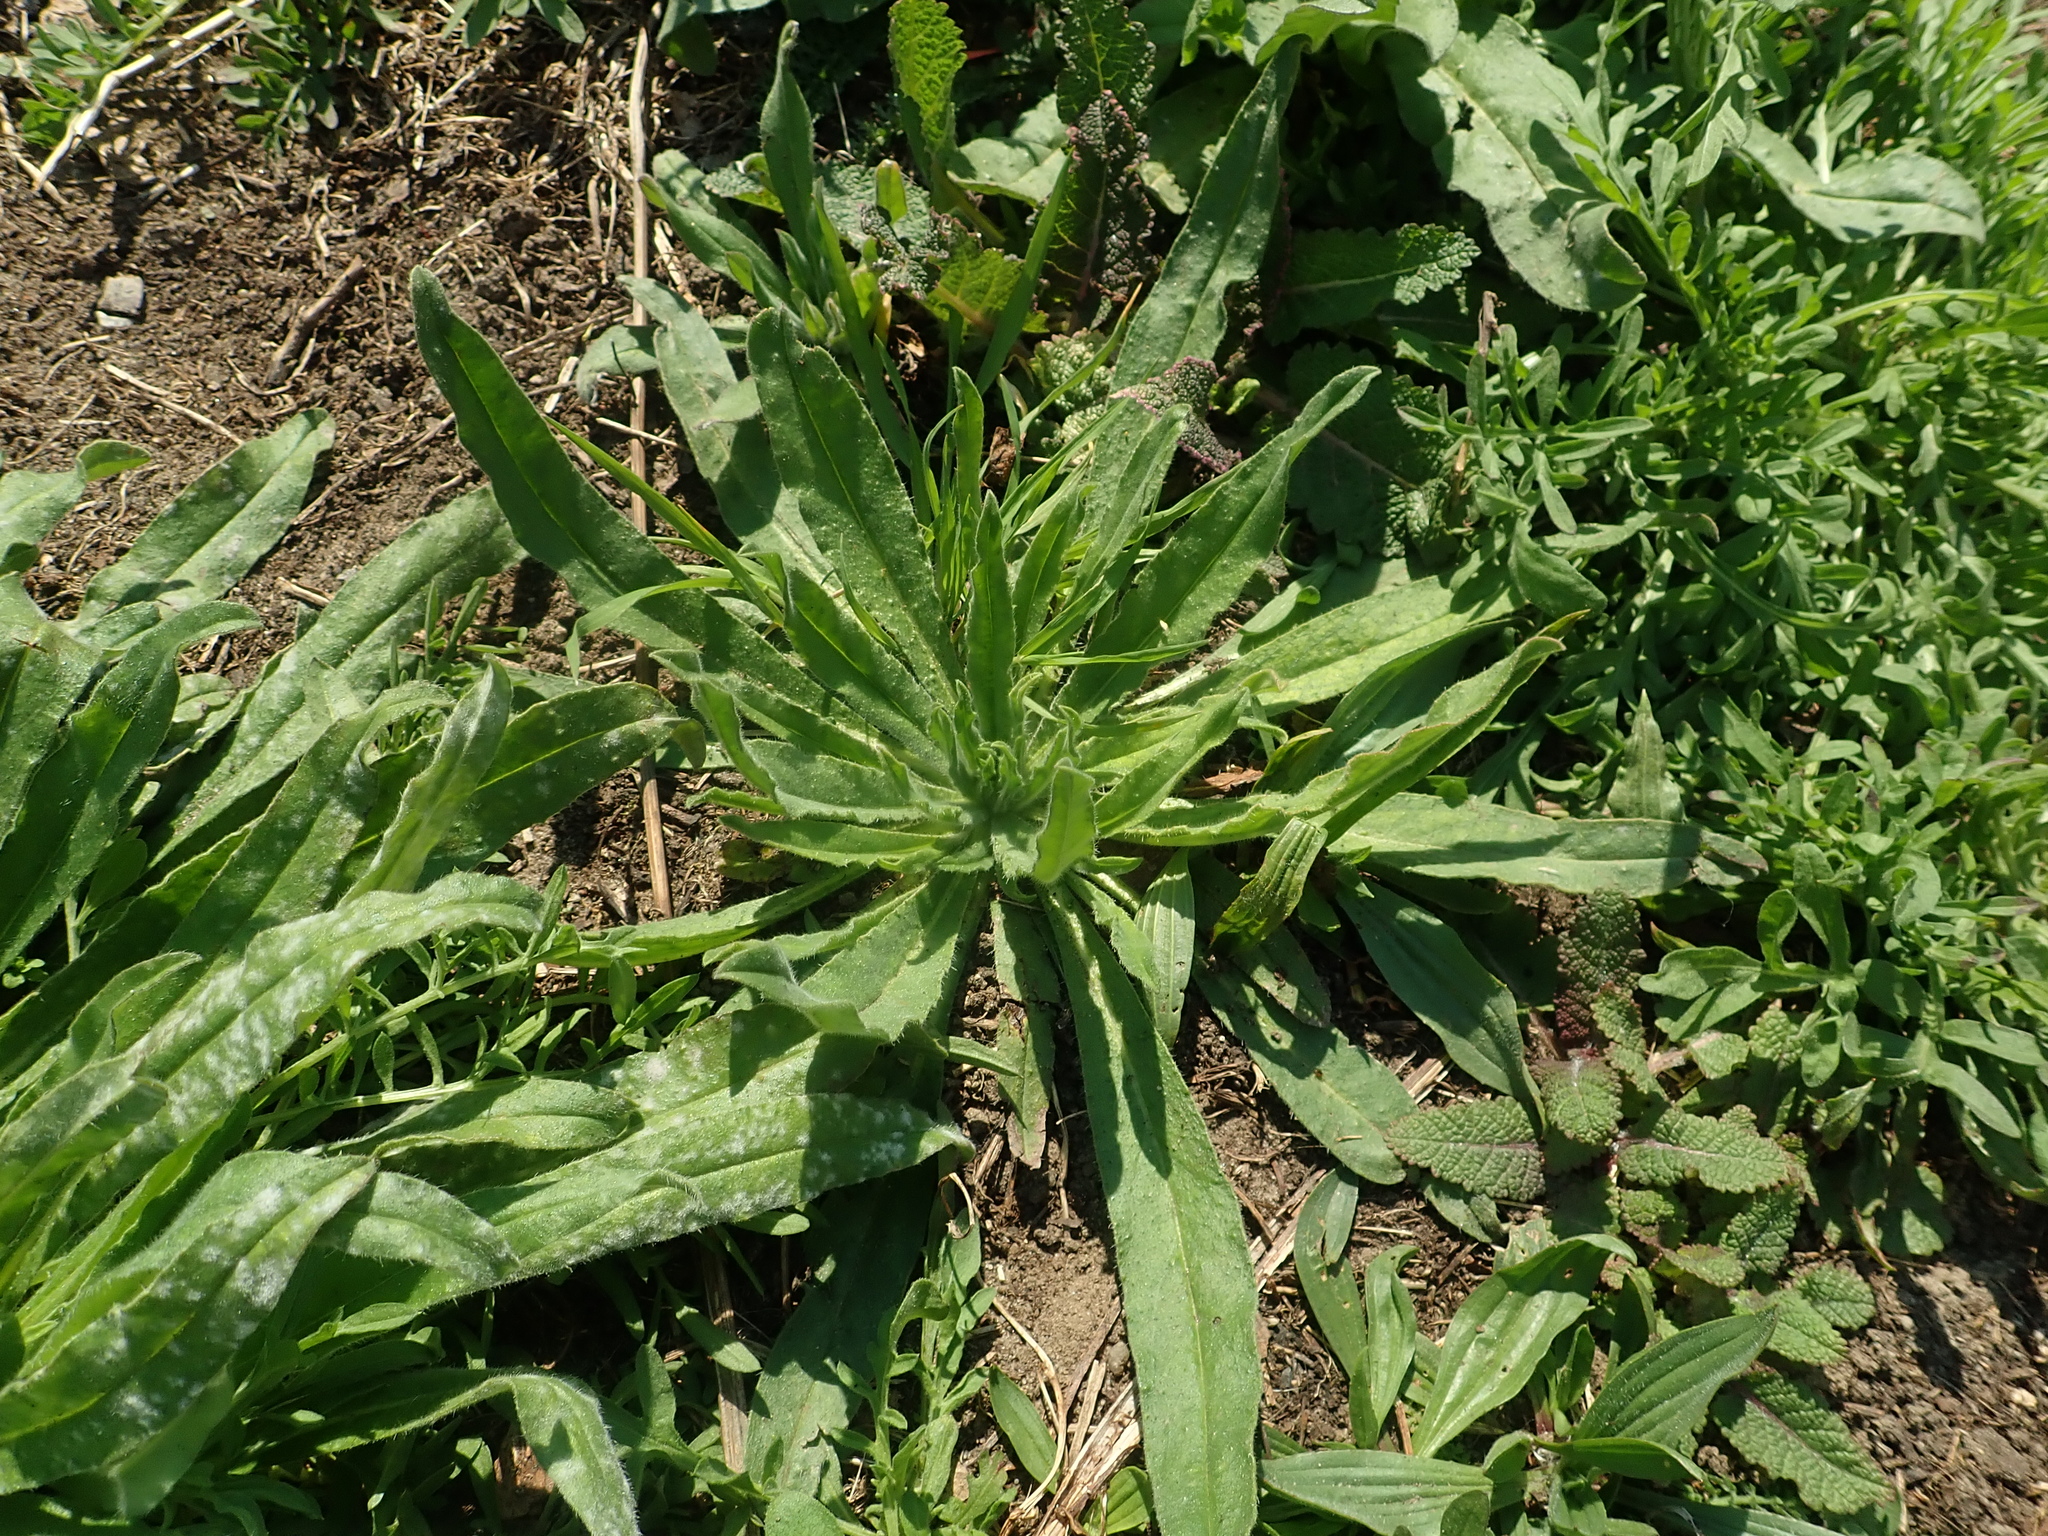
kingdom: Plantae
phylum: Tracheophyta
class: Magnoliopsida
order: Boraginales
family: Boraginaceae
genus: Echium
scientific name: Echium vulgare
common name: Common viper's bugloss
